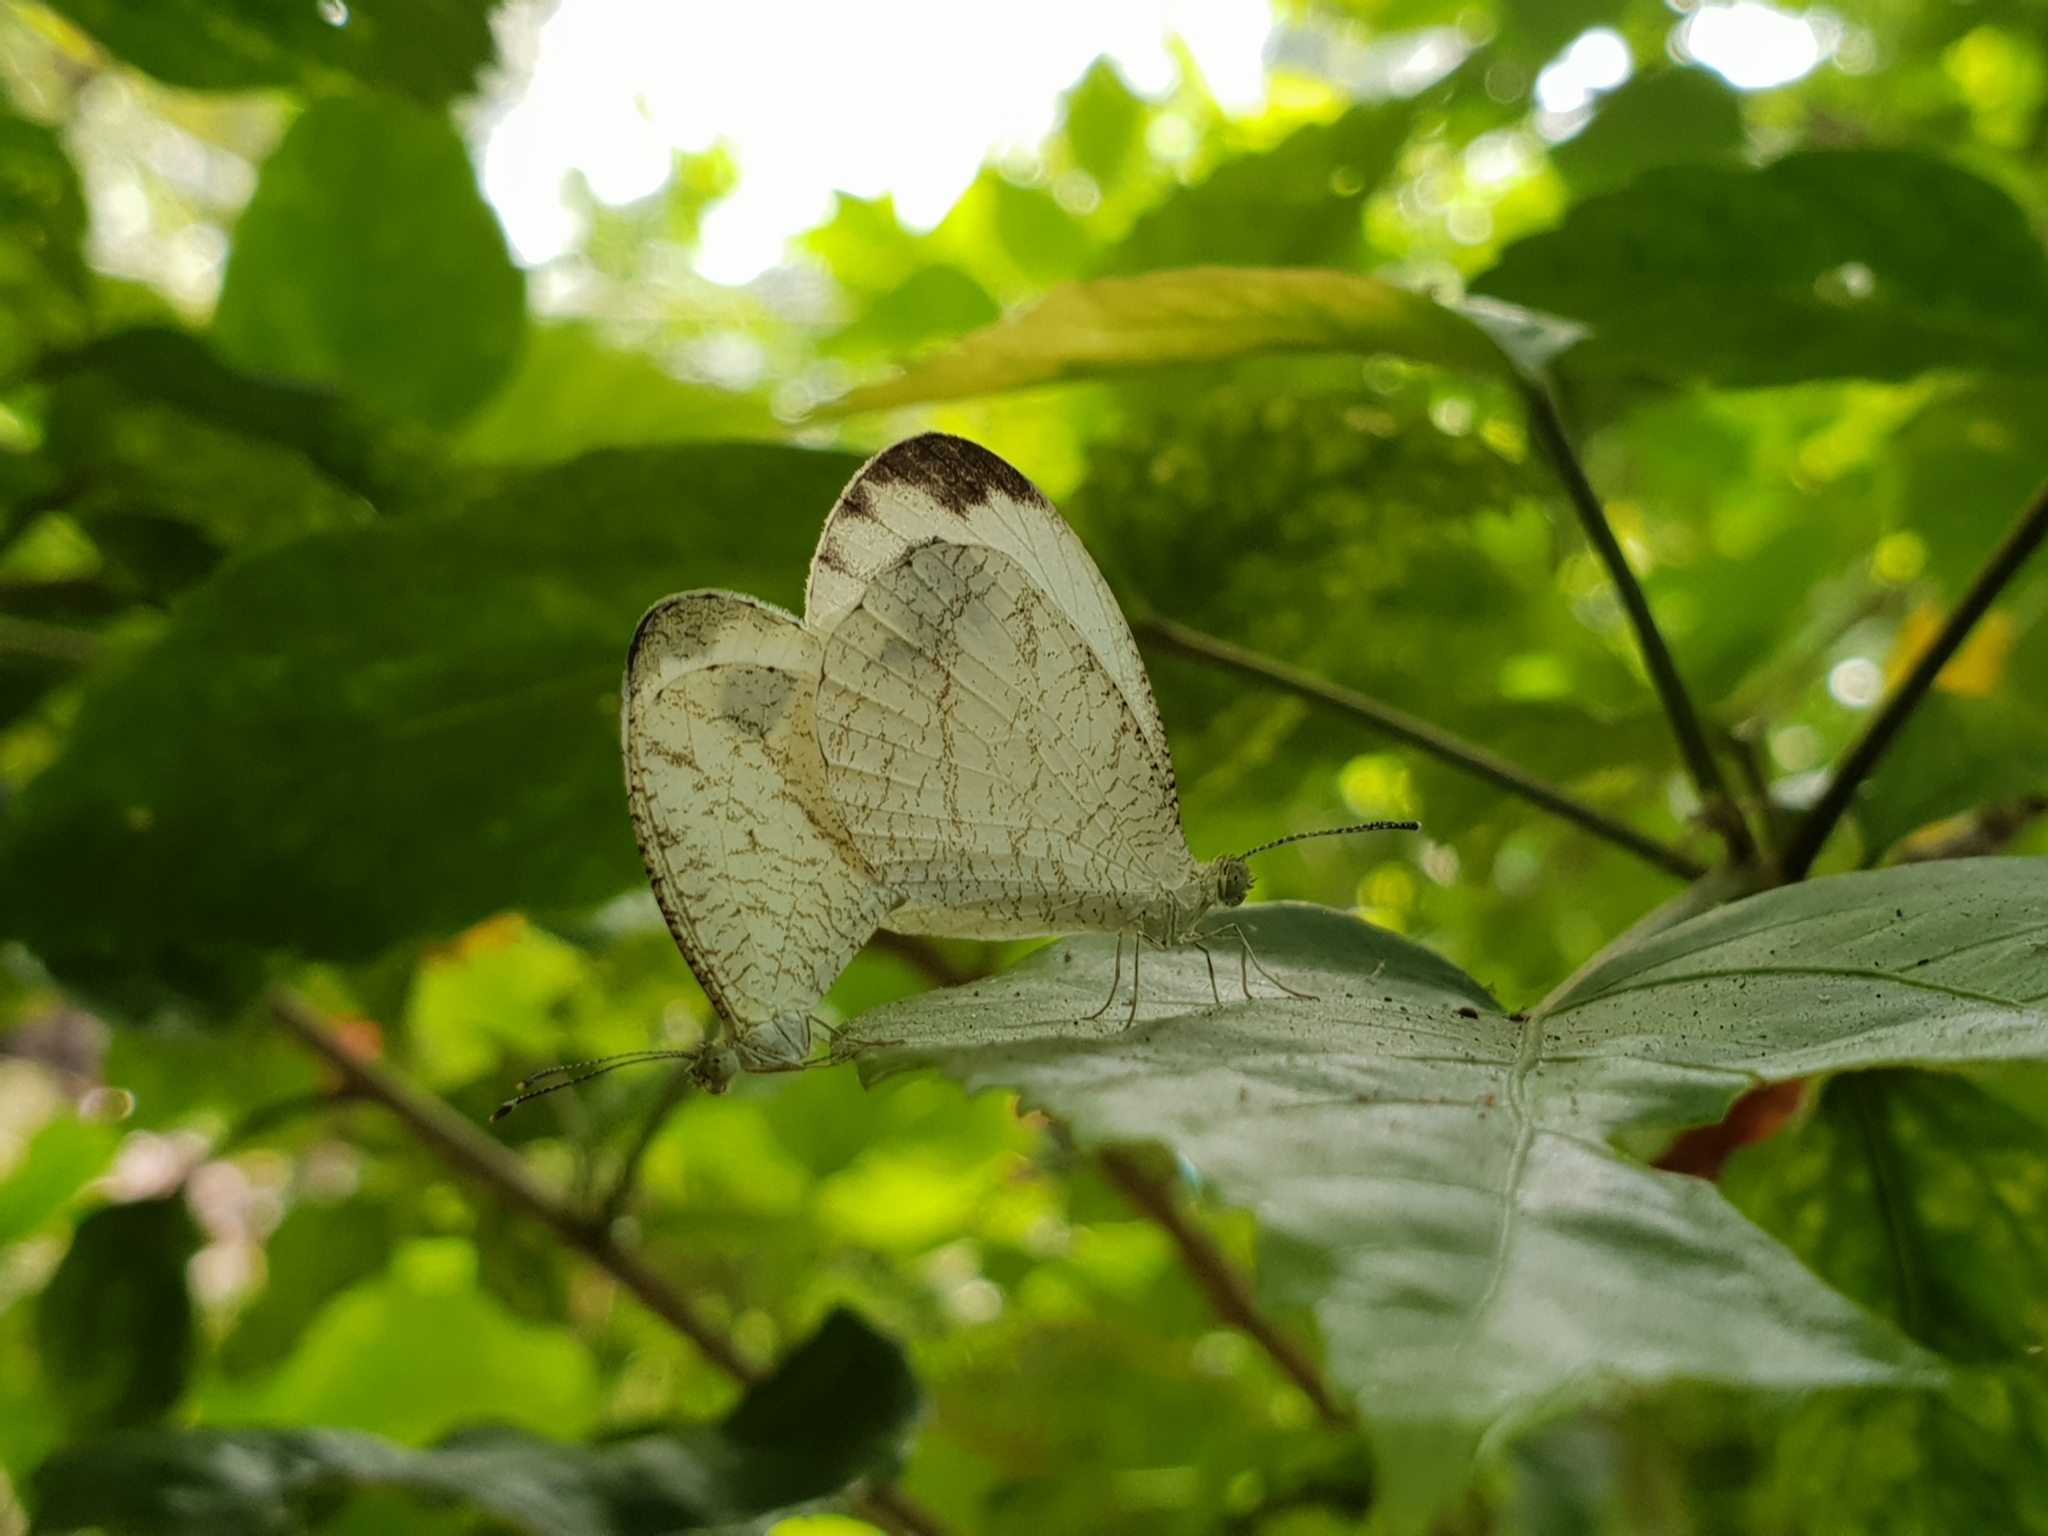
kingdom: Animalia
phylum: Arthropoda
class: Insecta
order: Lepidoptera
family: Pieridae
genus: Leptosia
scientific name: Leptosia nina
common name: Psyche
